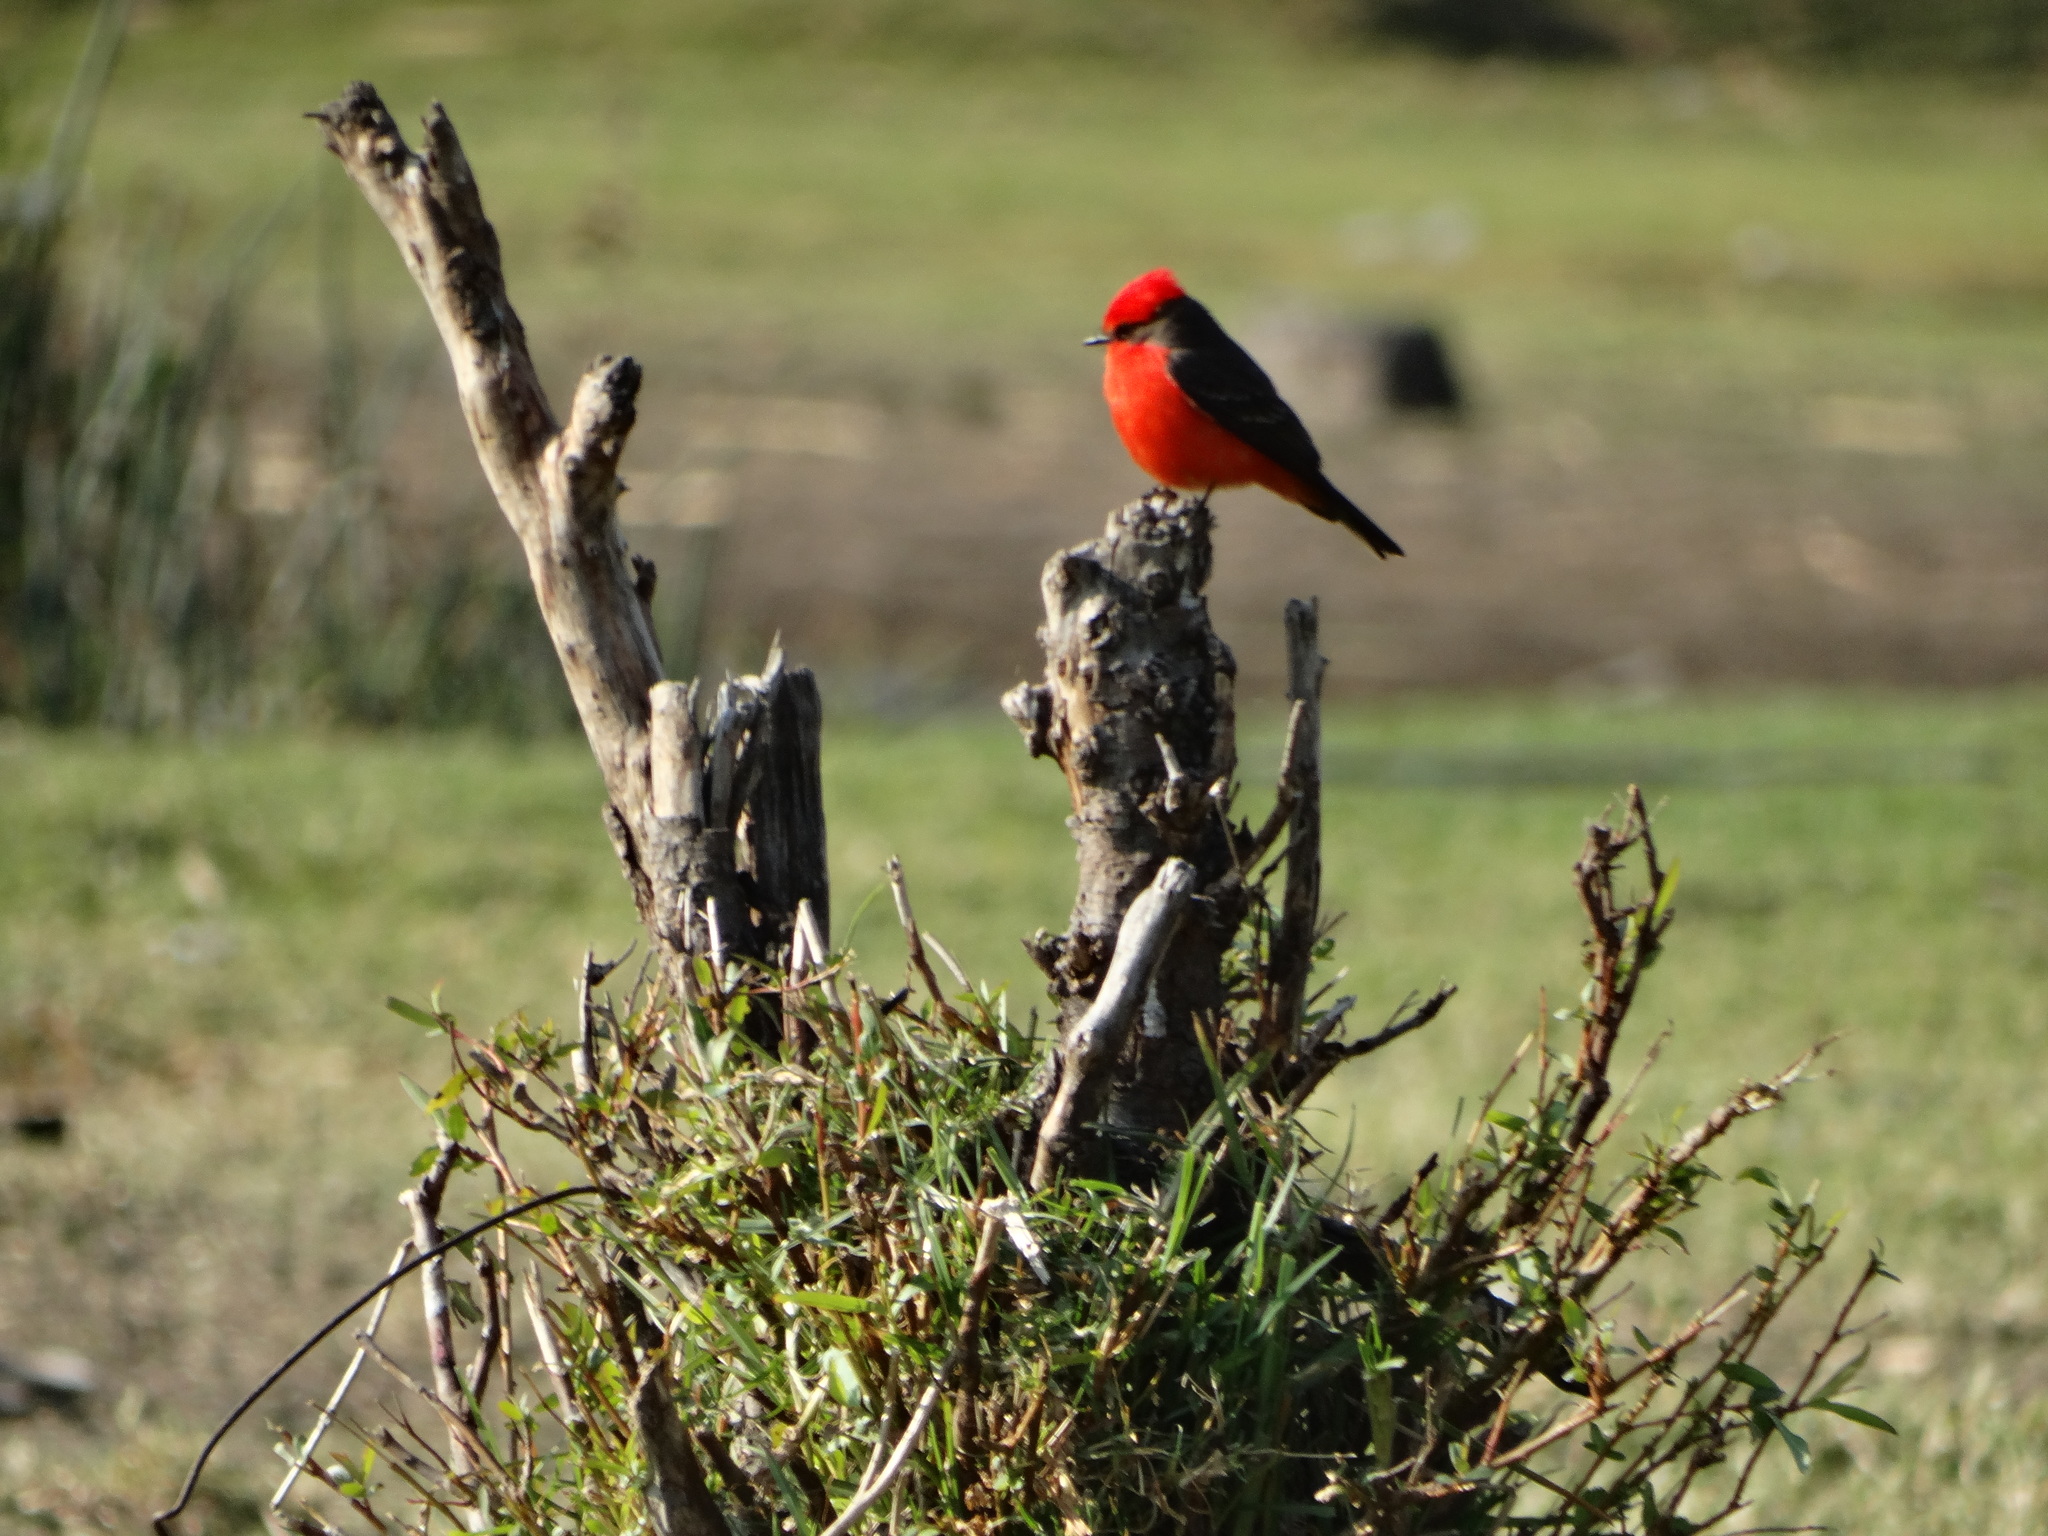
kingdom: Animalia
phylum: Chordata
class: Aves
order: Passeriformes
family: Tyrannidae
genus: Pyrocephalus
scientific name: Pyrocephalus rubinus
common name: Vermilion flycatcher
